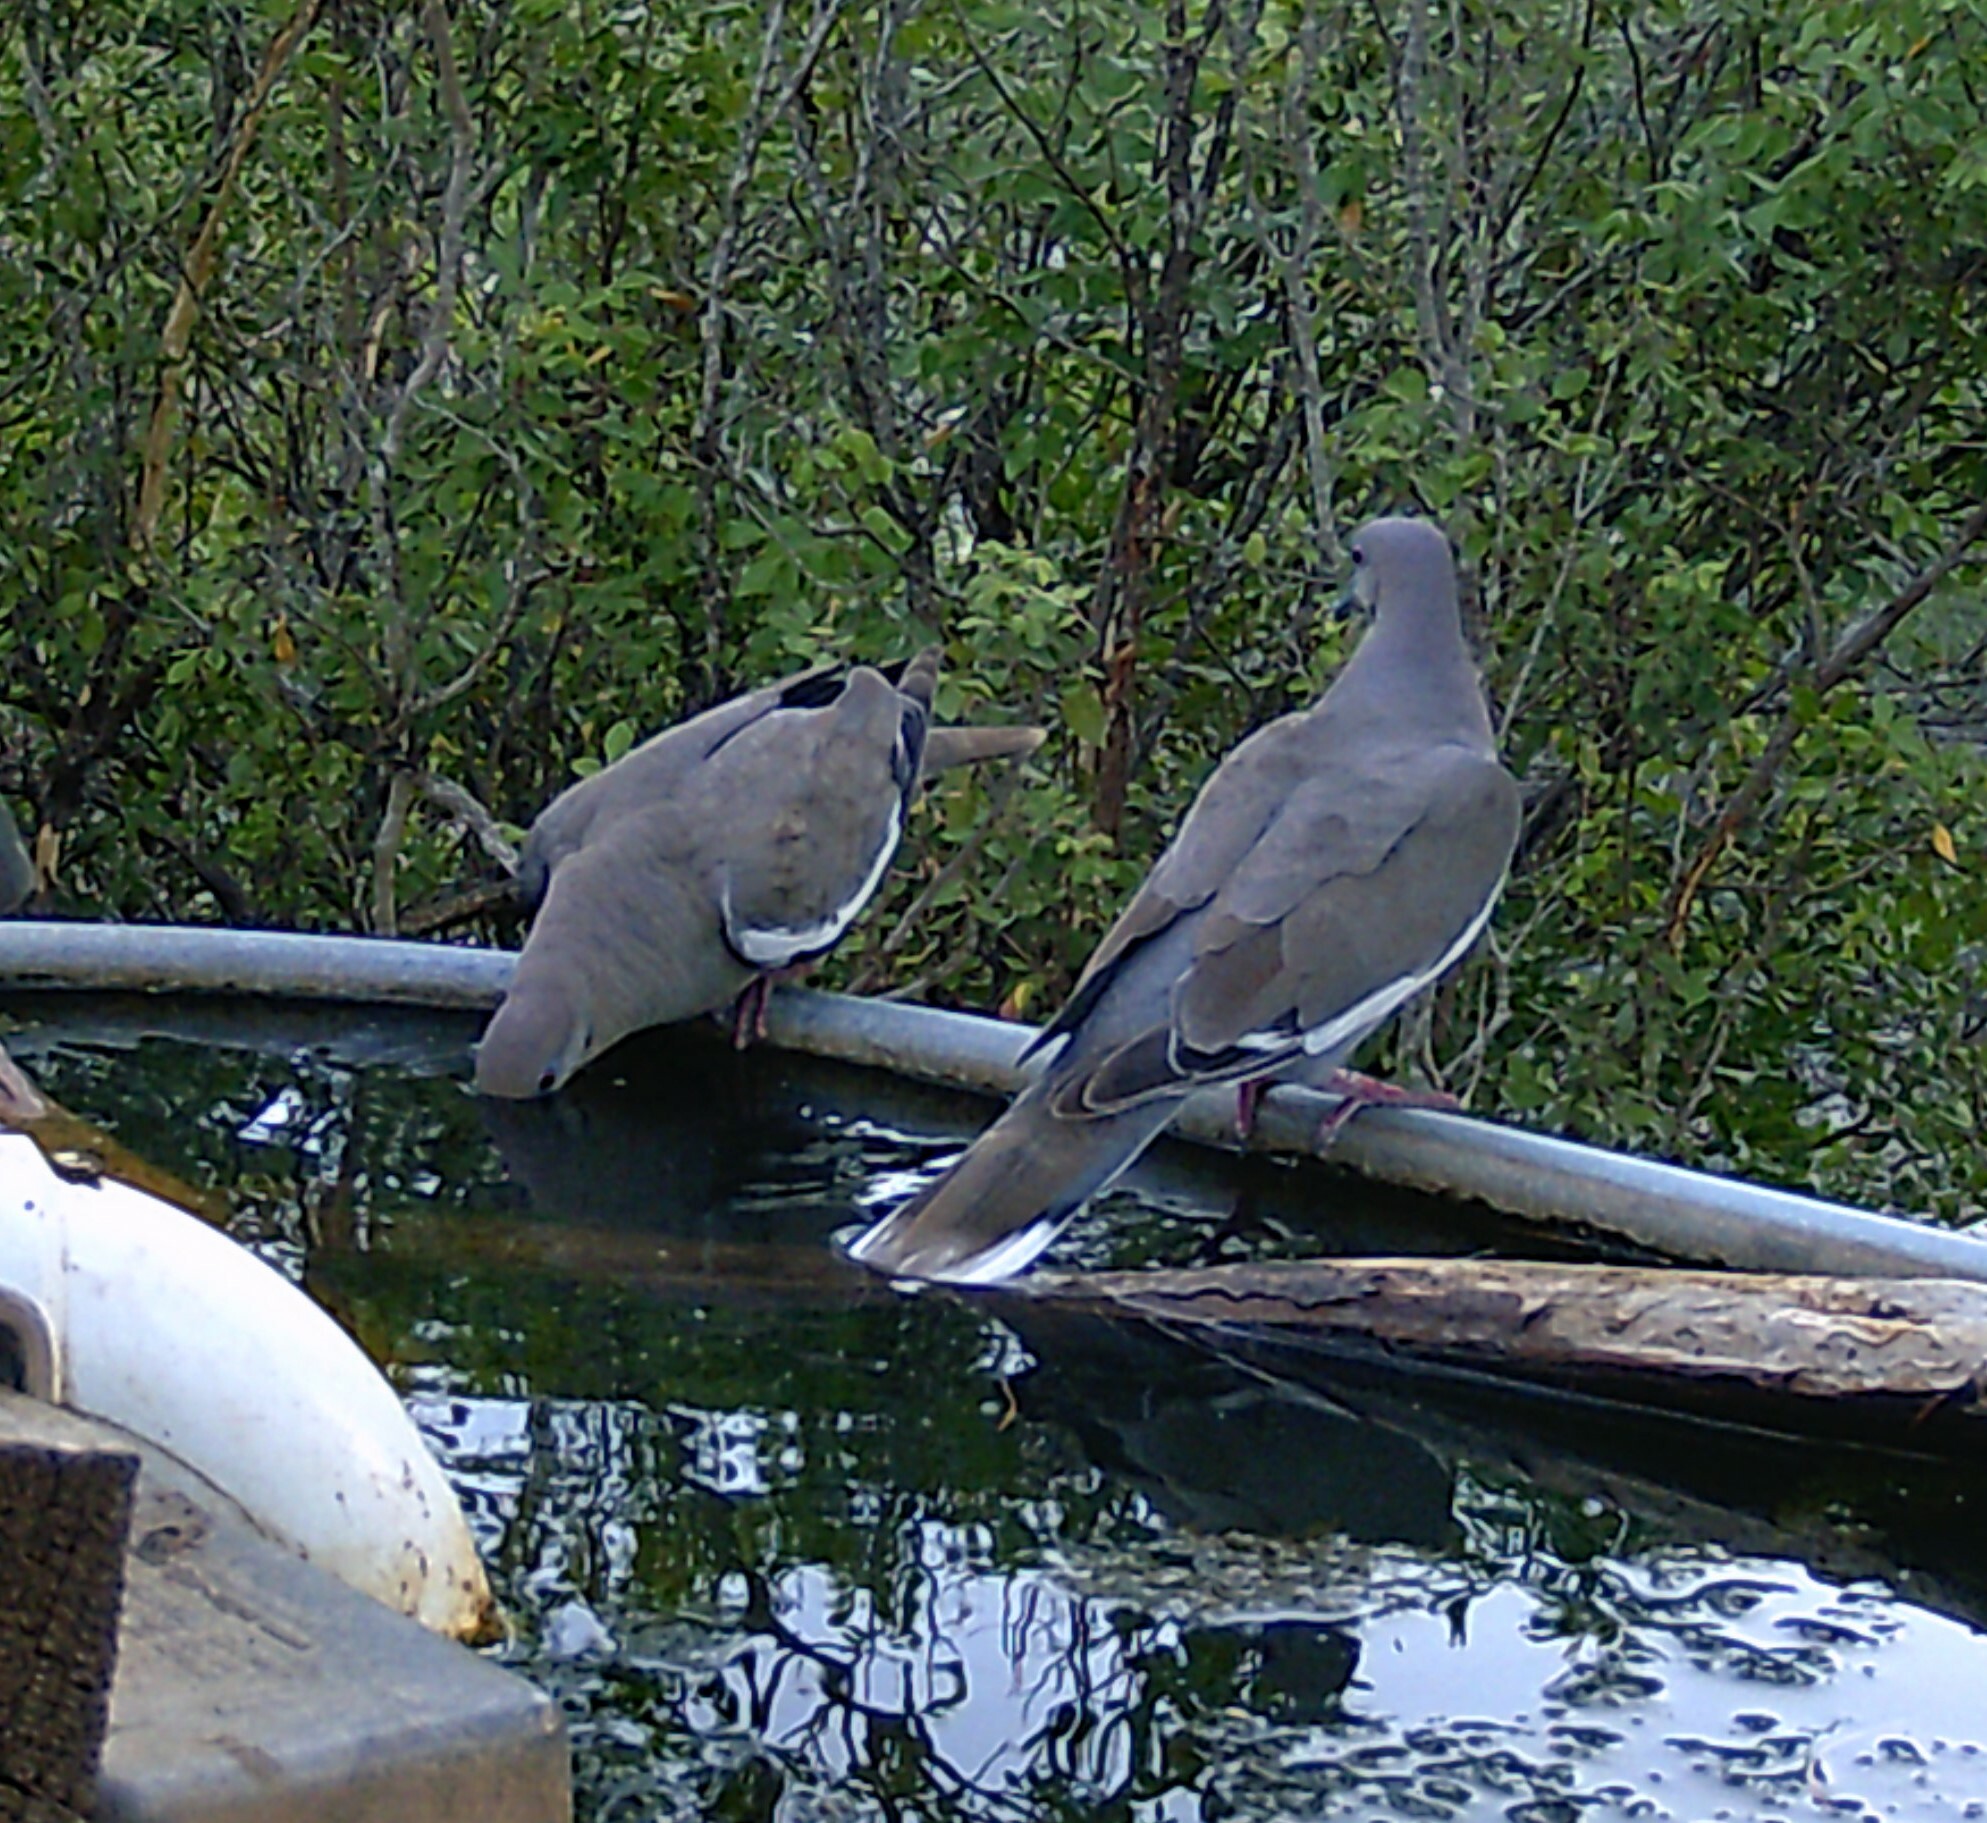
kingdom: Animalia
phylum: Chordata
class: Aves
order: Columbiformes
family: Columbidae
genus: Zenaida
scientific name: Zenaida asiatica
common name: White-winged dove
